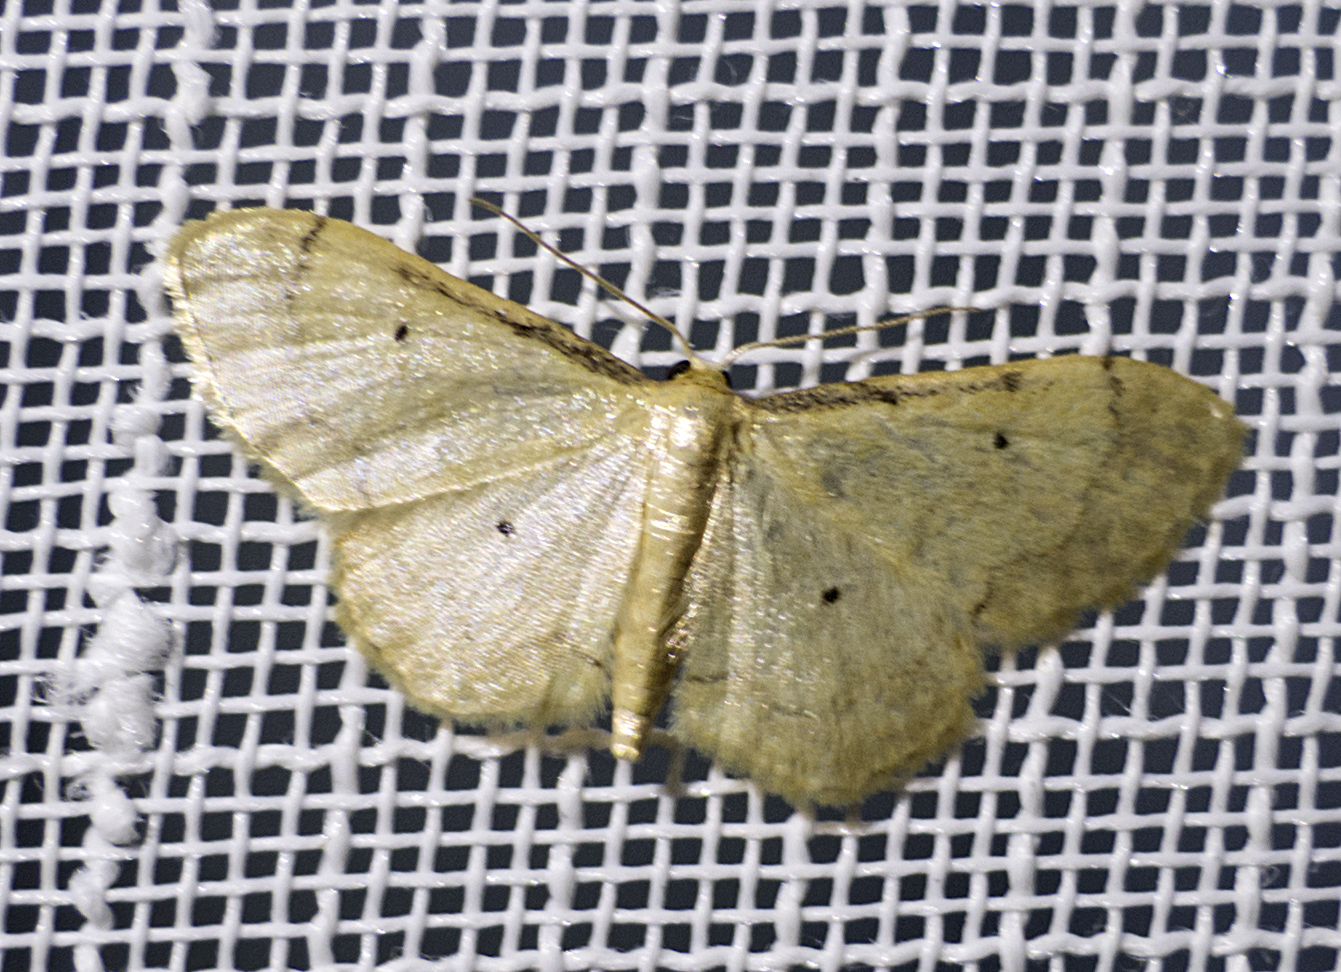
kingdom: Animalia
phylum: Arthropoda
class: Insecta
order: Lepidoptera
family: Geometridae
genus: Idaea
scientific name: Idaea politaria
